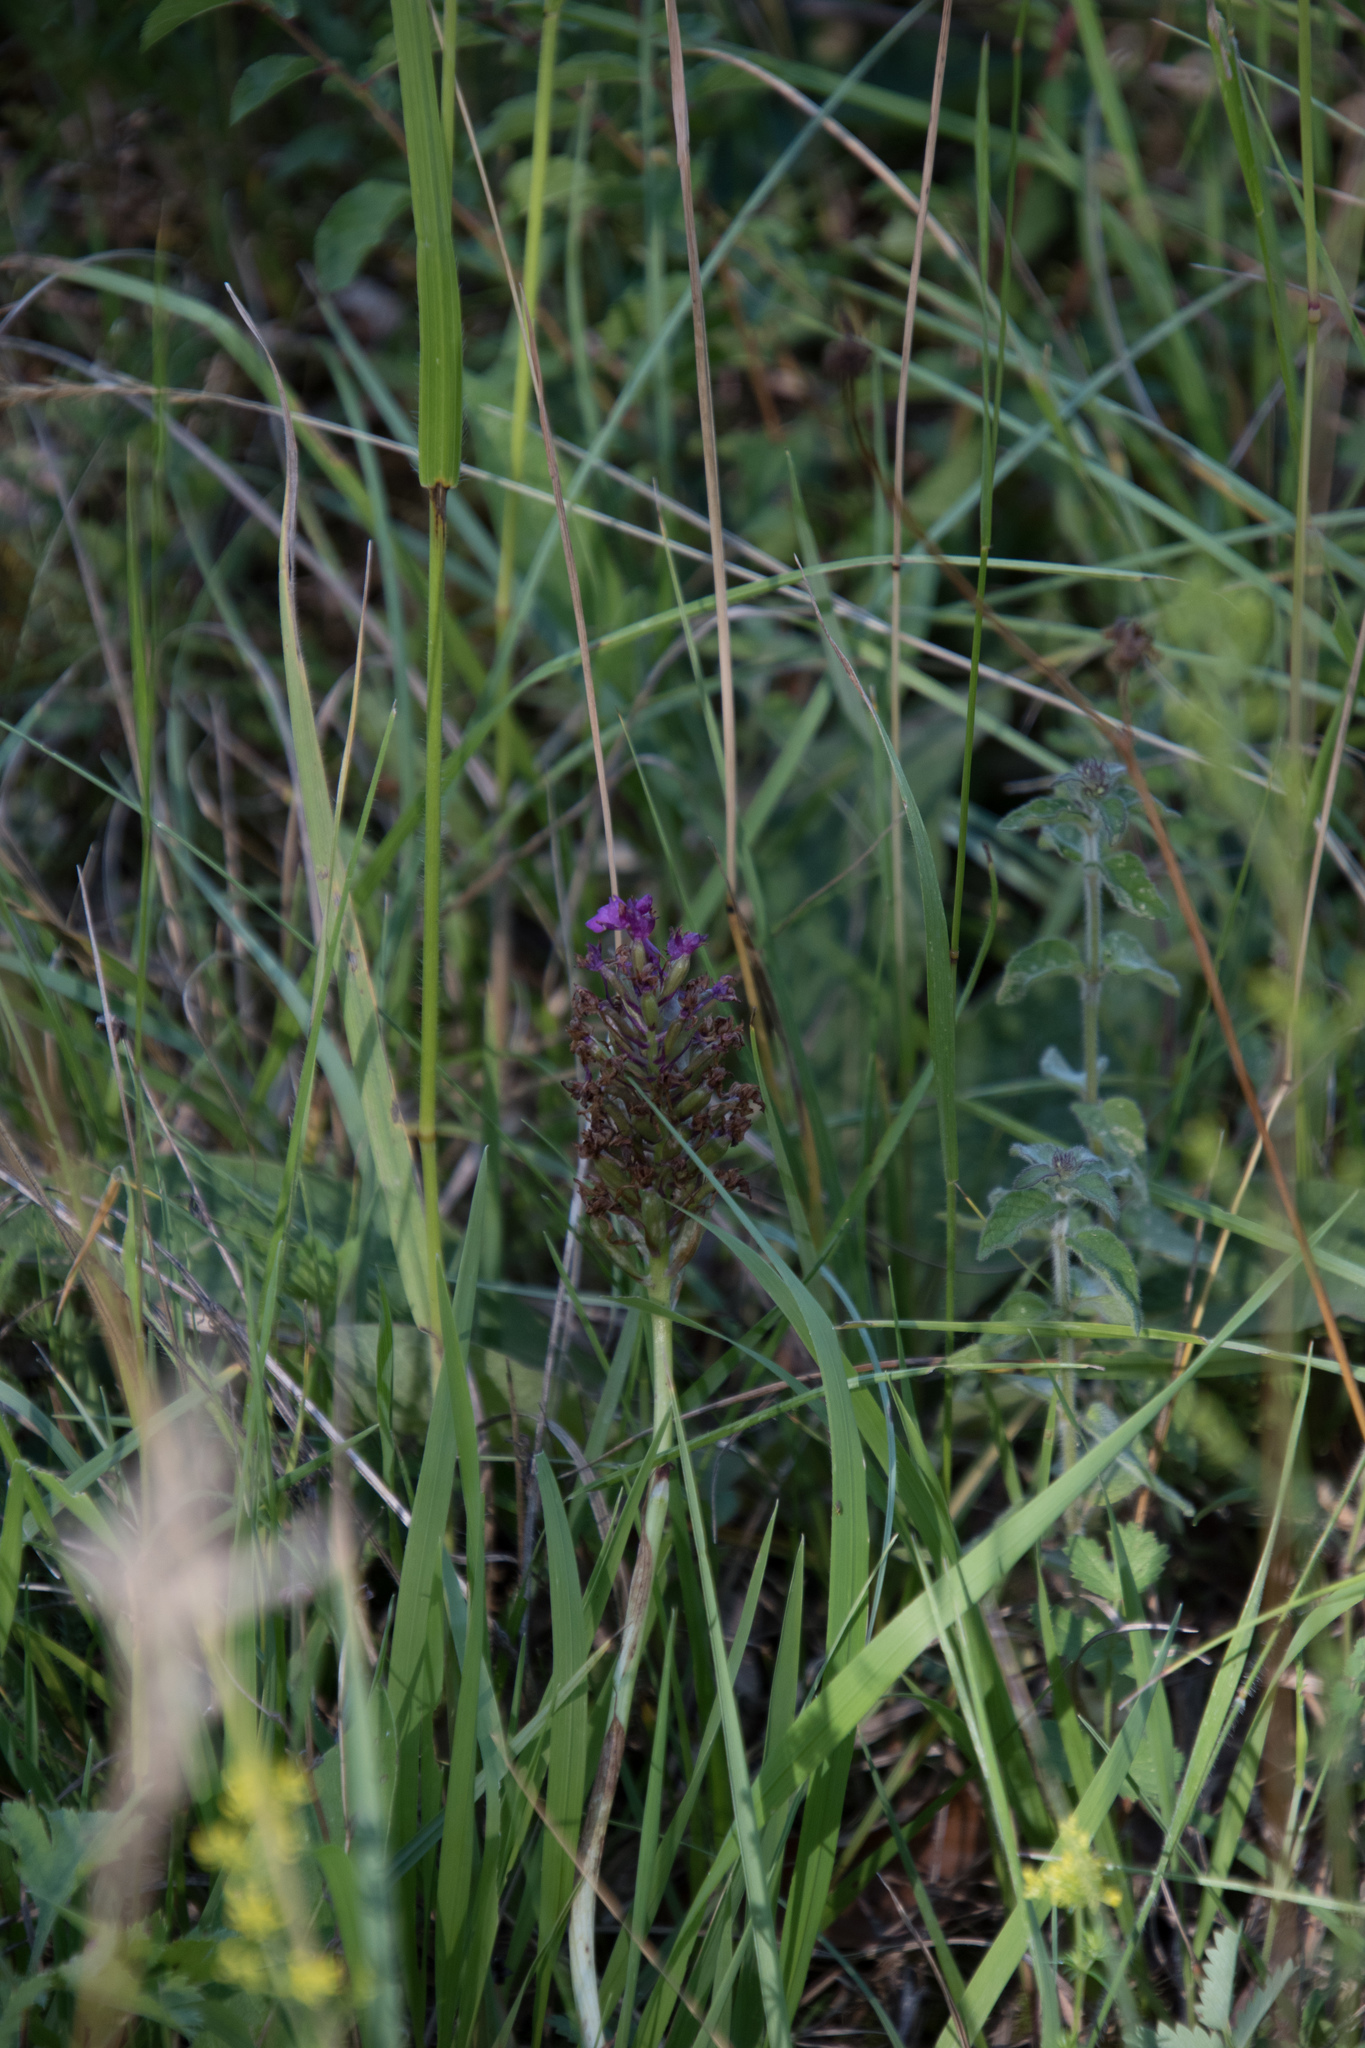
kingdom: Plantae
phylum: Tracheophyta
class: Liliopsida
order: Asparagales
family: Orchidaceae
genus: Anacamptis
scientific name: Anacamptis pyramidalis
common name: Pyramidal orchid
